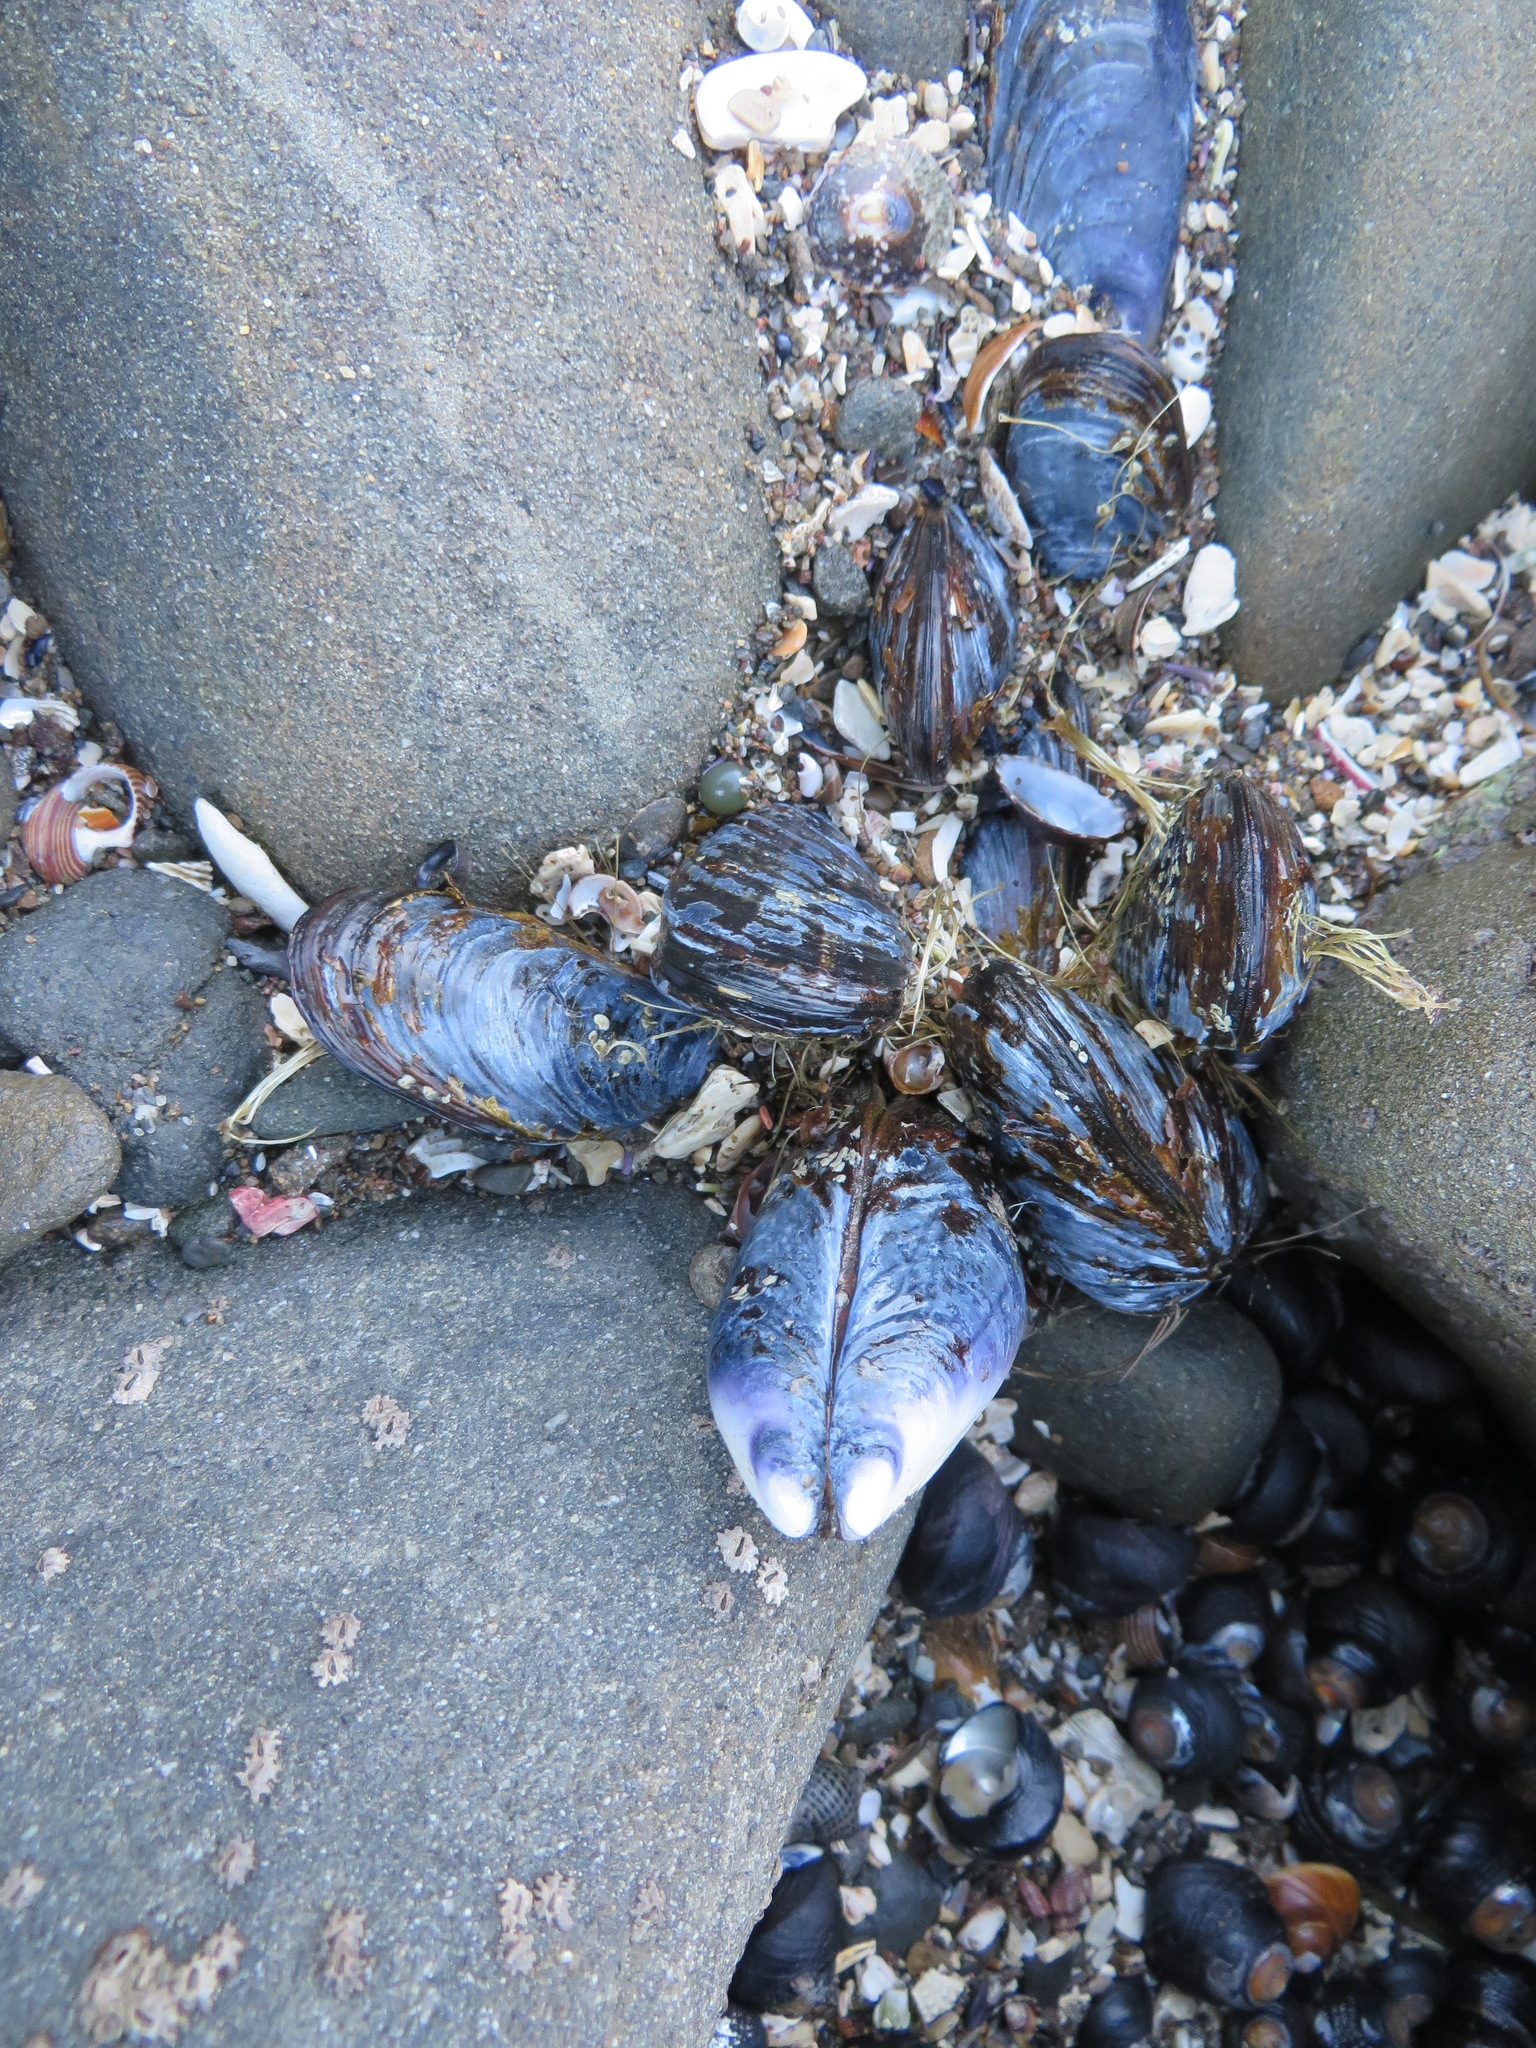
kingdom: Animalia
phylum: Mollusca
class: Bivalvia
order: Mytilida
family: Mytilidae
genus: Mytilus
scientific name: Mytilus californianus
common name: California mussel
